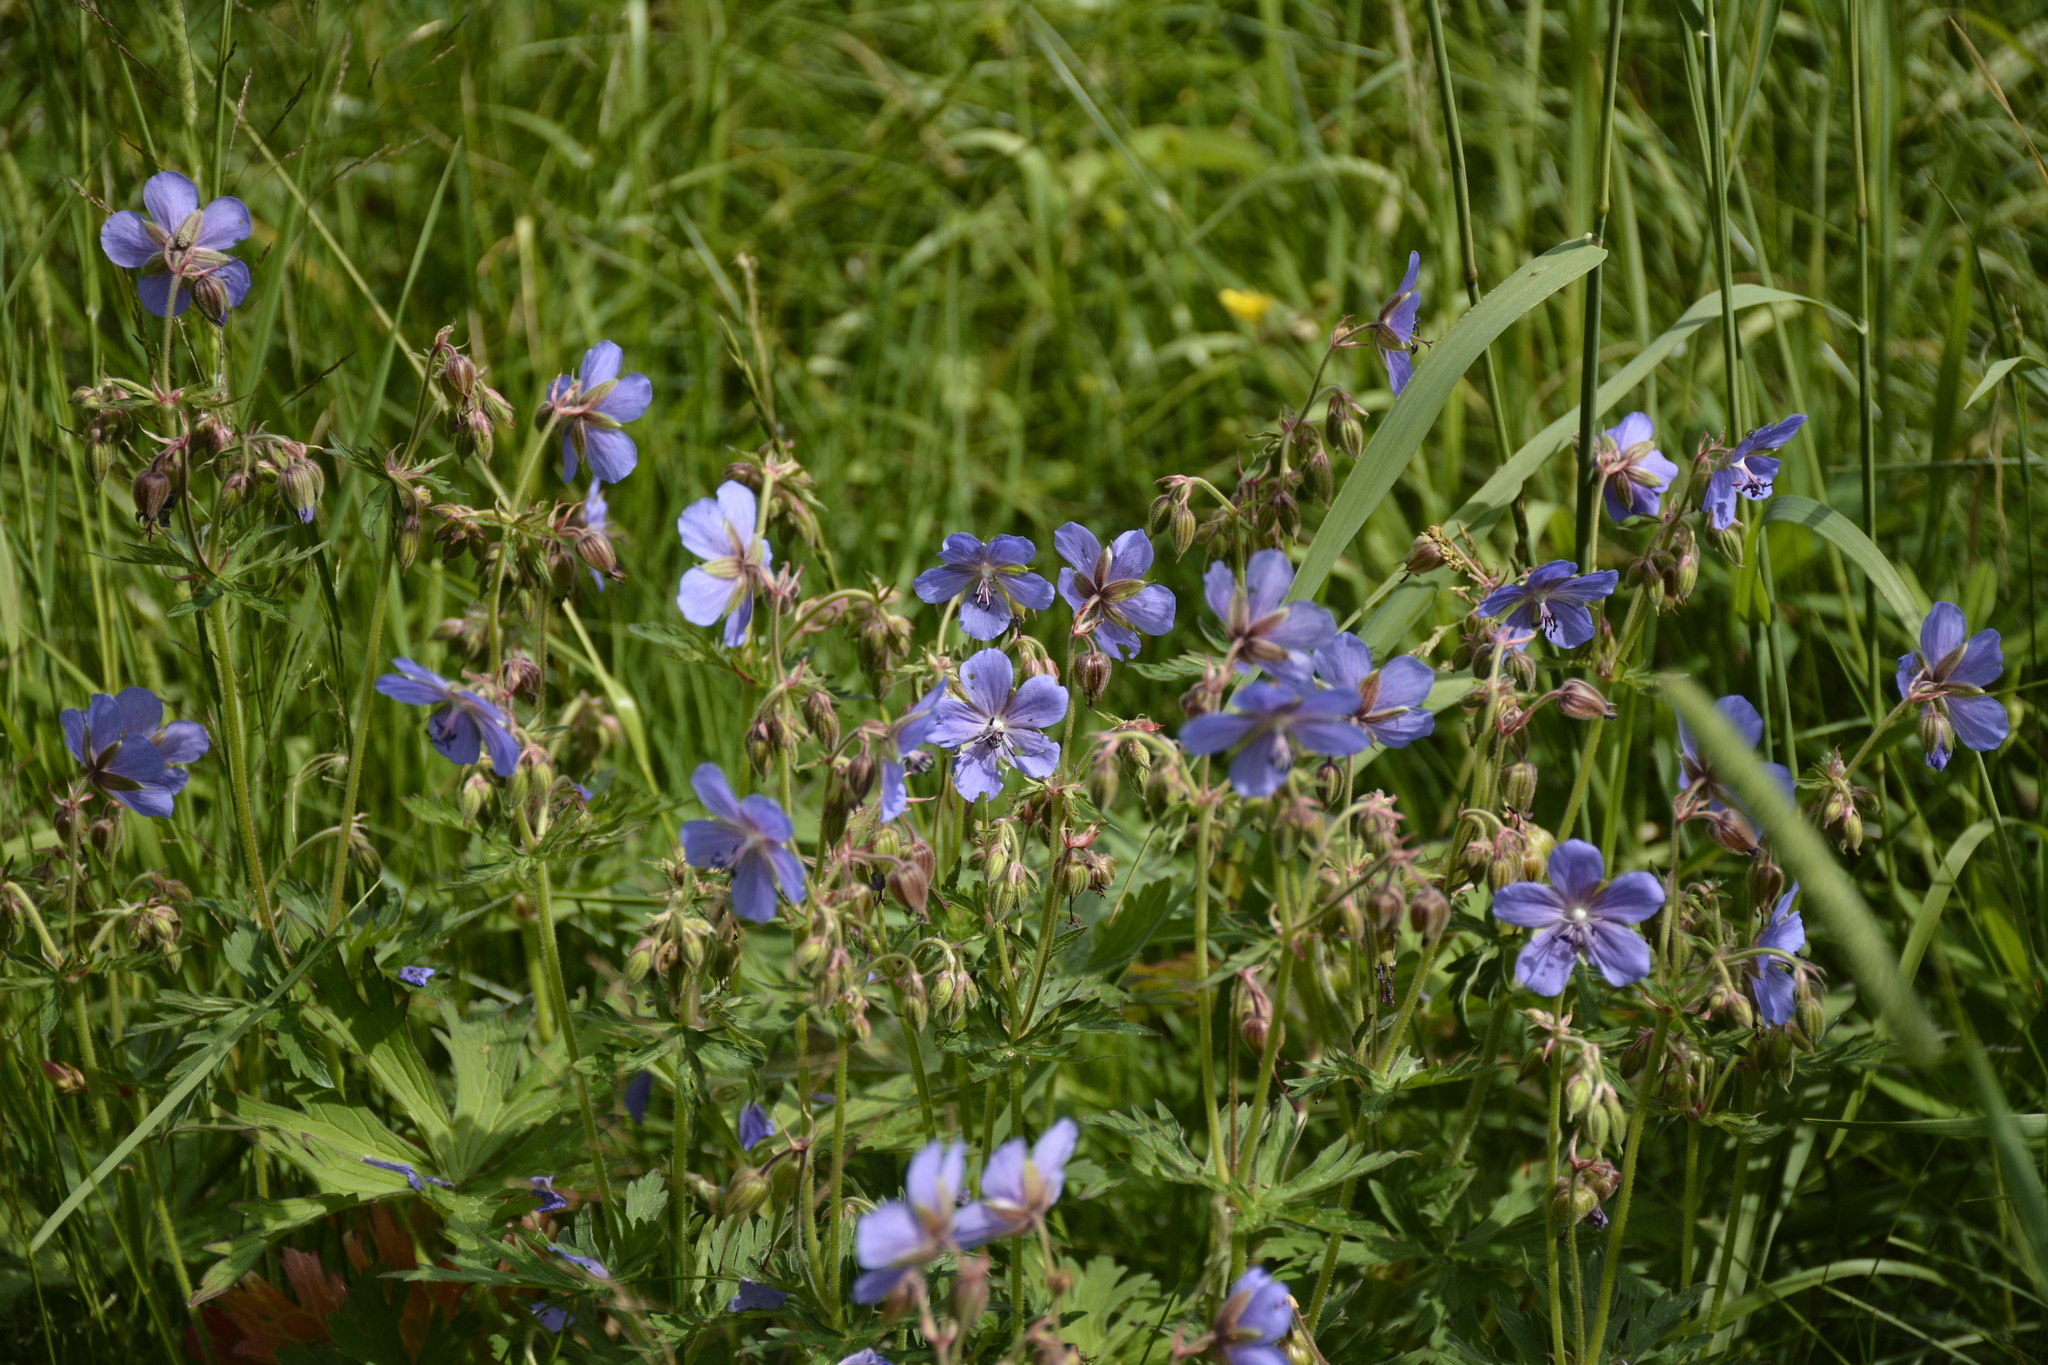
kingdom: Plantae
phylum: Tracheophyta
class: Magnoliopsida
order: Geraniales
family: Geraniaceae
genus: Geranium
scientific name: Geranium pratense
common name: Meadow crane's-bill
